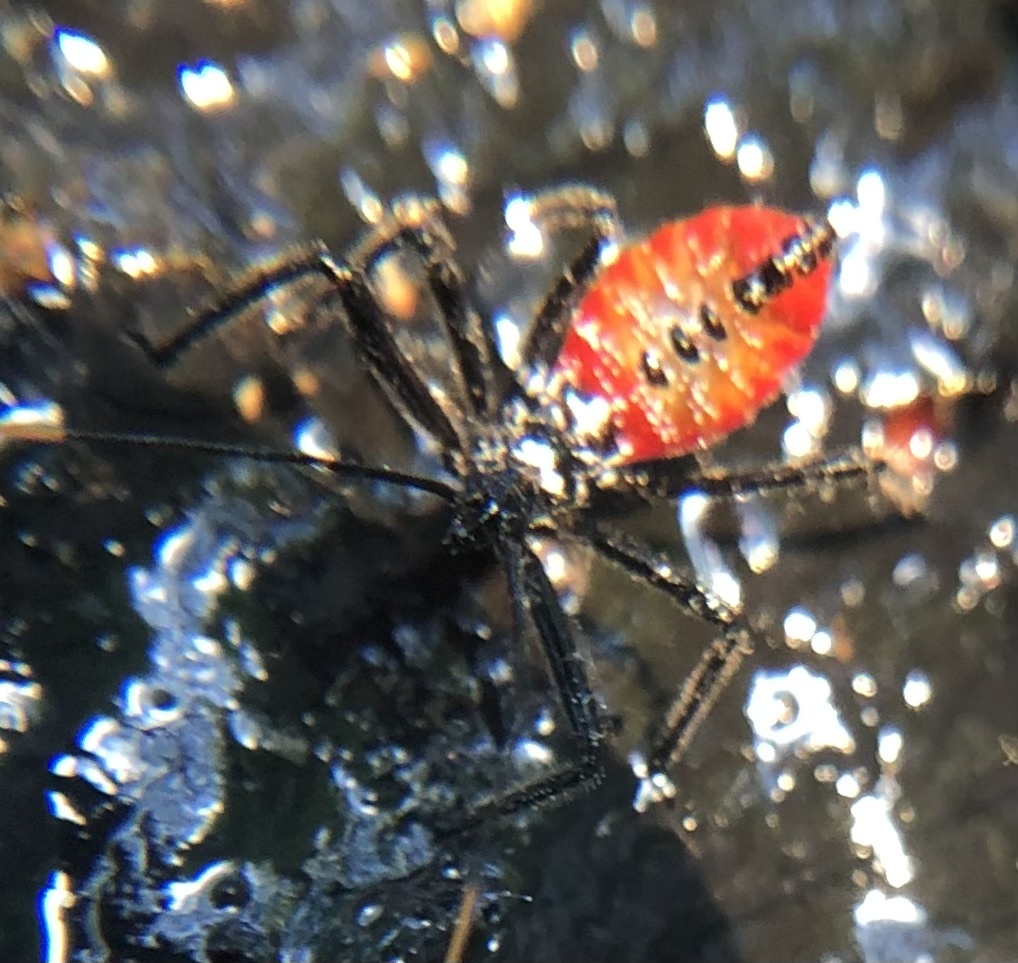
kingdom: Animalia
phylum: Arthropoda
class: Insecta
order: Hemiptera
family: Reduviidae
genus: Arilus
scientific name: Arilus cristatus
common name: North american wheel bug
